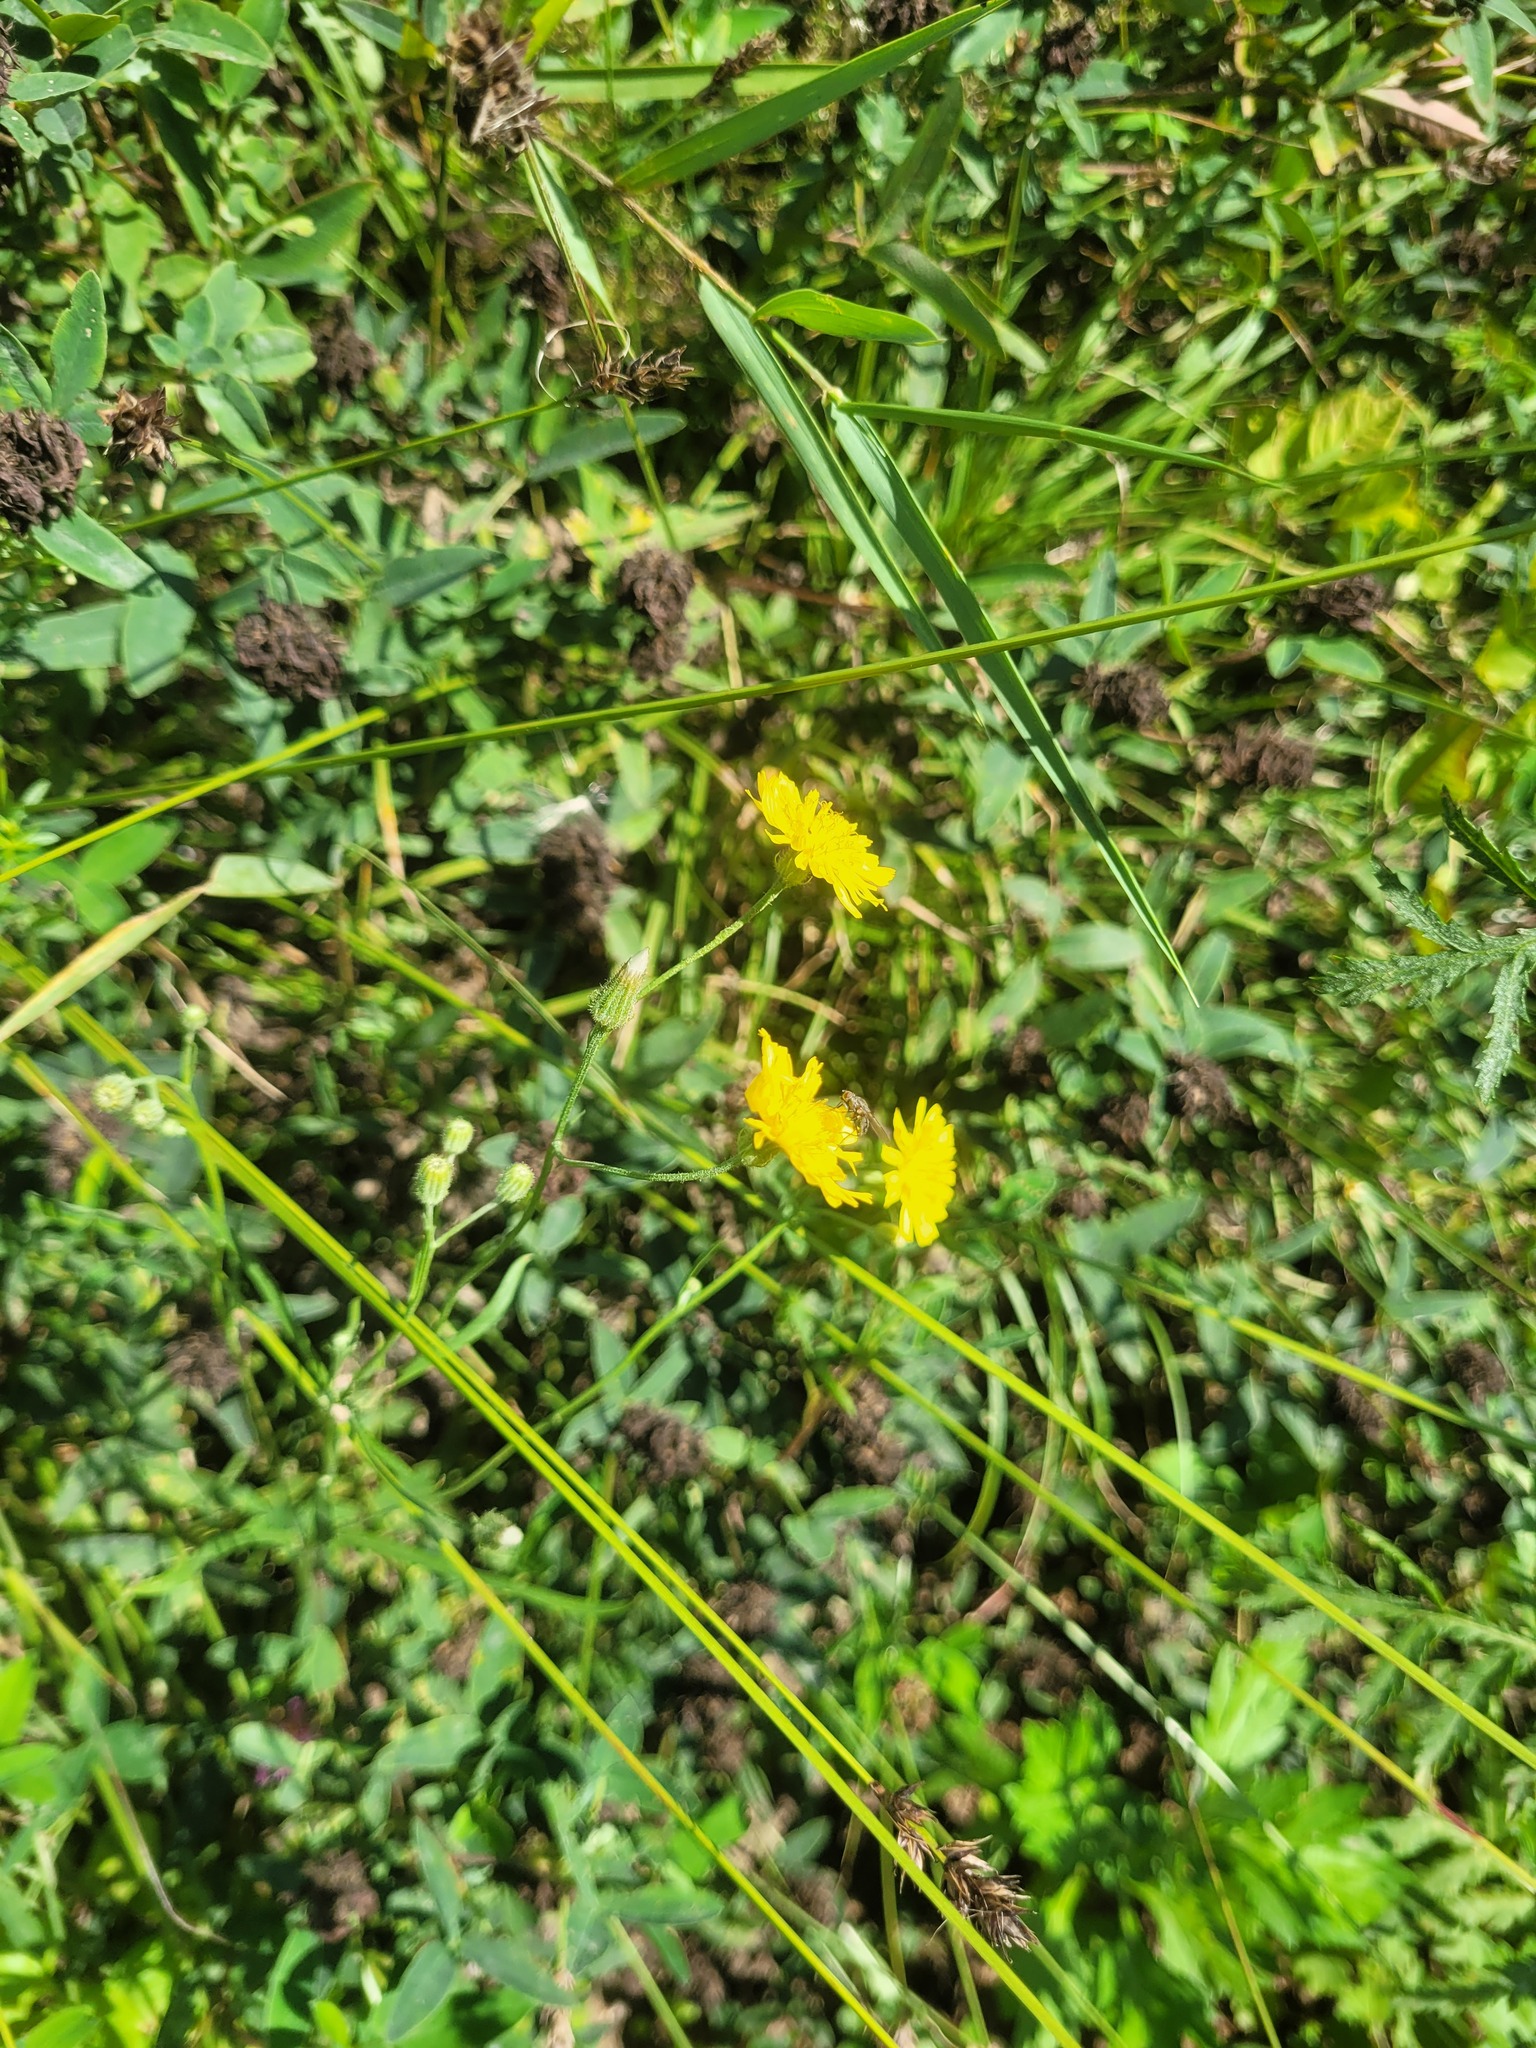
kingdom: Plantae
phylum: Tracheophyta
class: Magnoliopsida
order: Asterales
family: Asteraceae
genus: Crepis
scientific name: Crepis tectorum
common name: Narrow-leaved hawk's-beard
